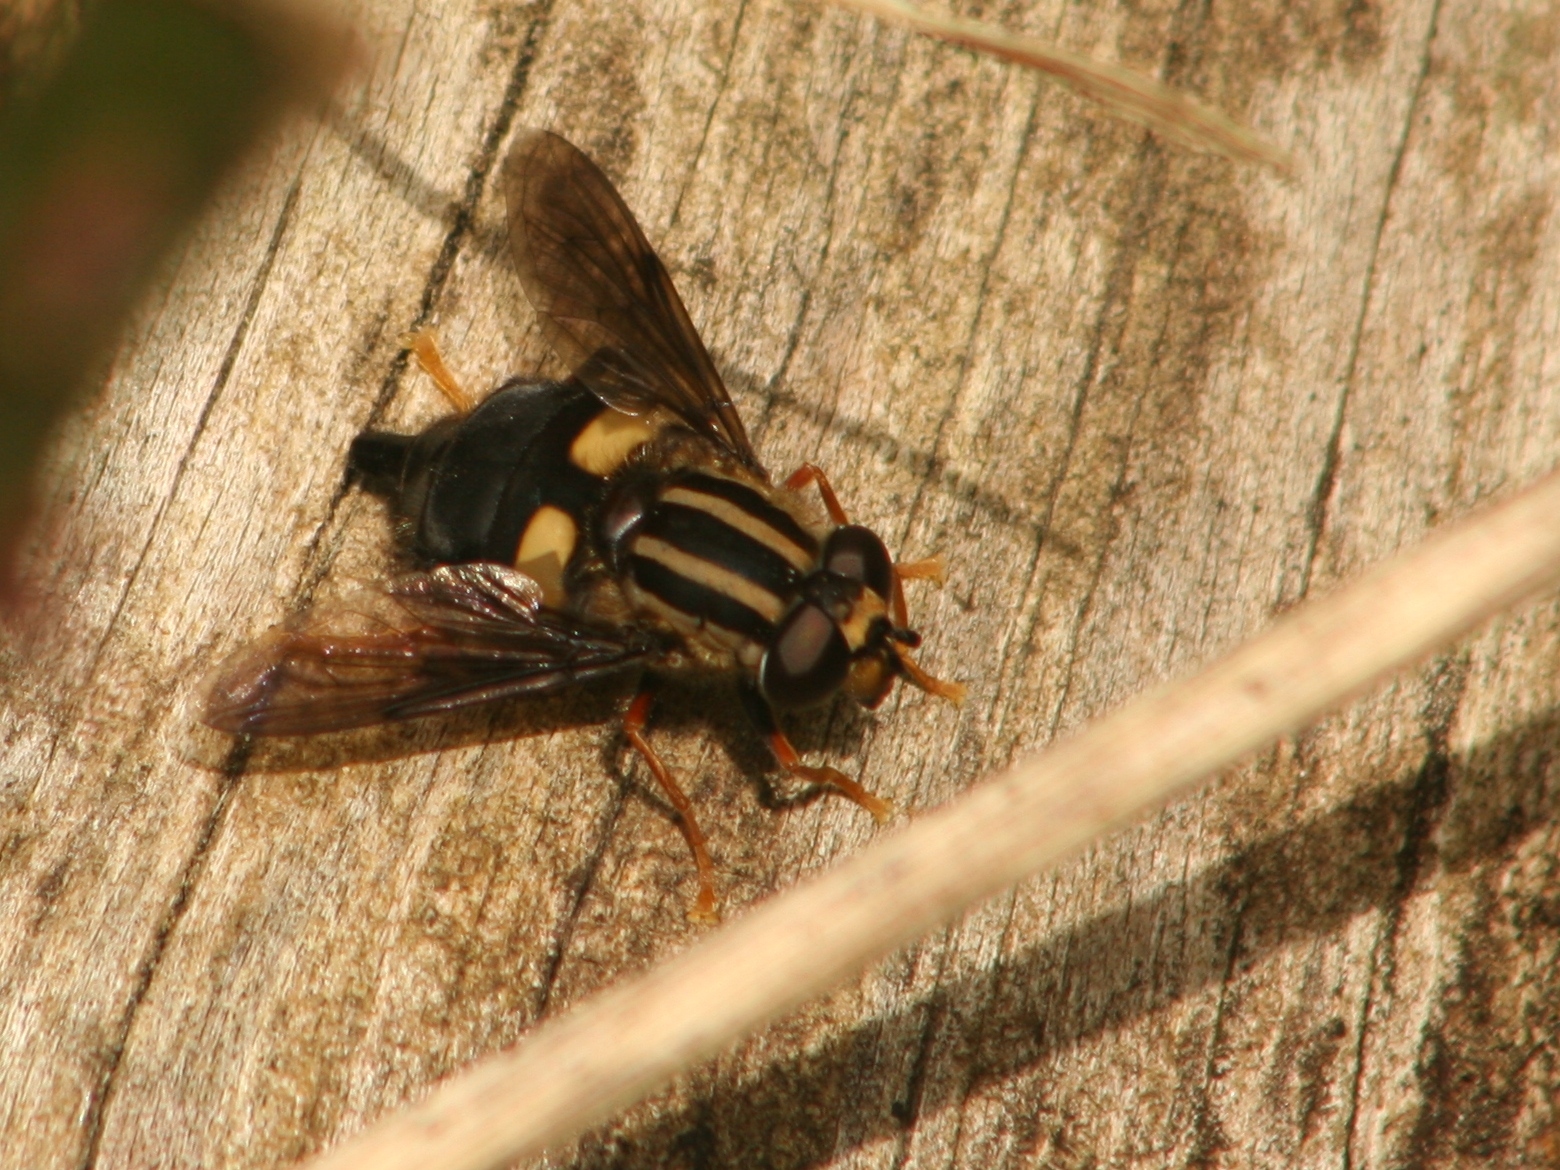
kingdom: Animalia
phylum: Arthropoda
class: Insecta
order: Diptera
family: Syrphidae
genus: Helophilus
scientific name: Helophilus seelandicus
